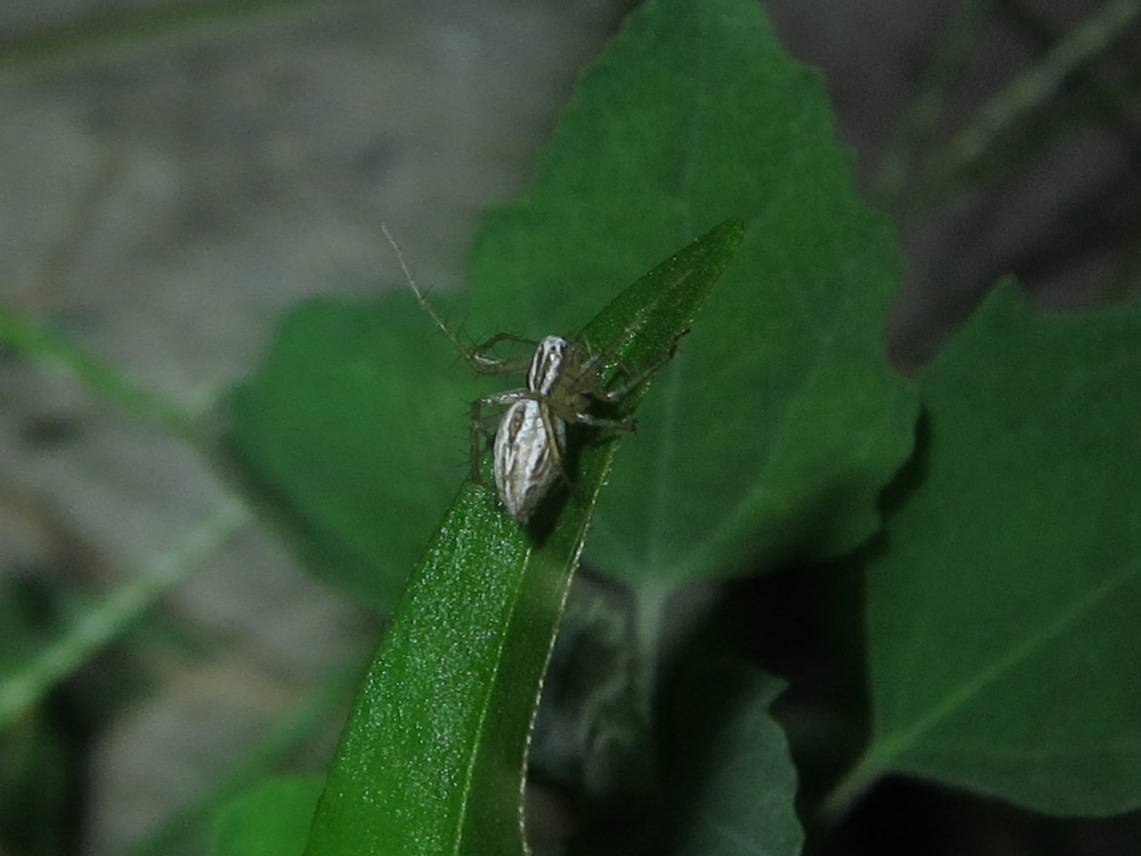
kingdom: Animalia
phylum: Arthropoda
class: Arachnida
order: Araneae
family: Oxyopidae
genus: Oxyopes
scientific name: Oxyopes salticus
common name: Lynx spiders
